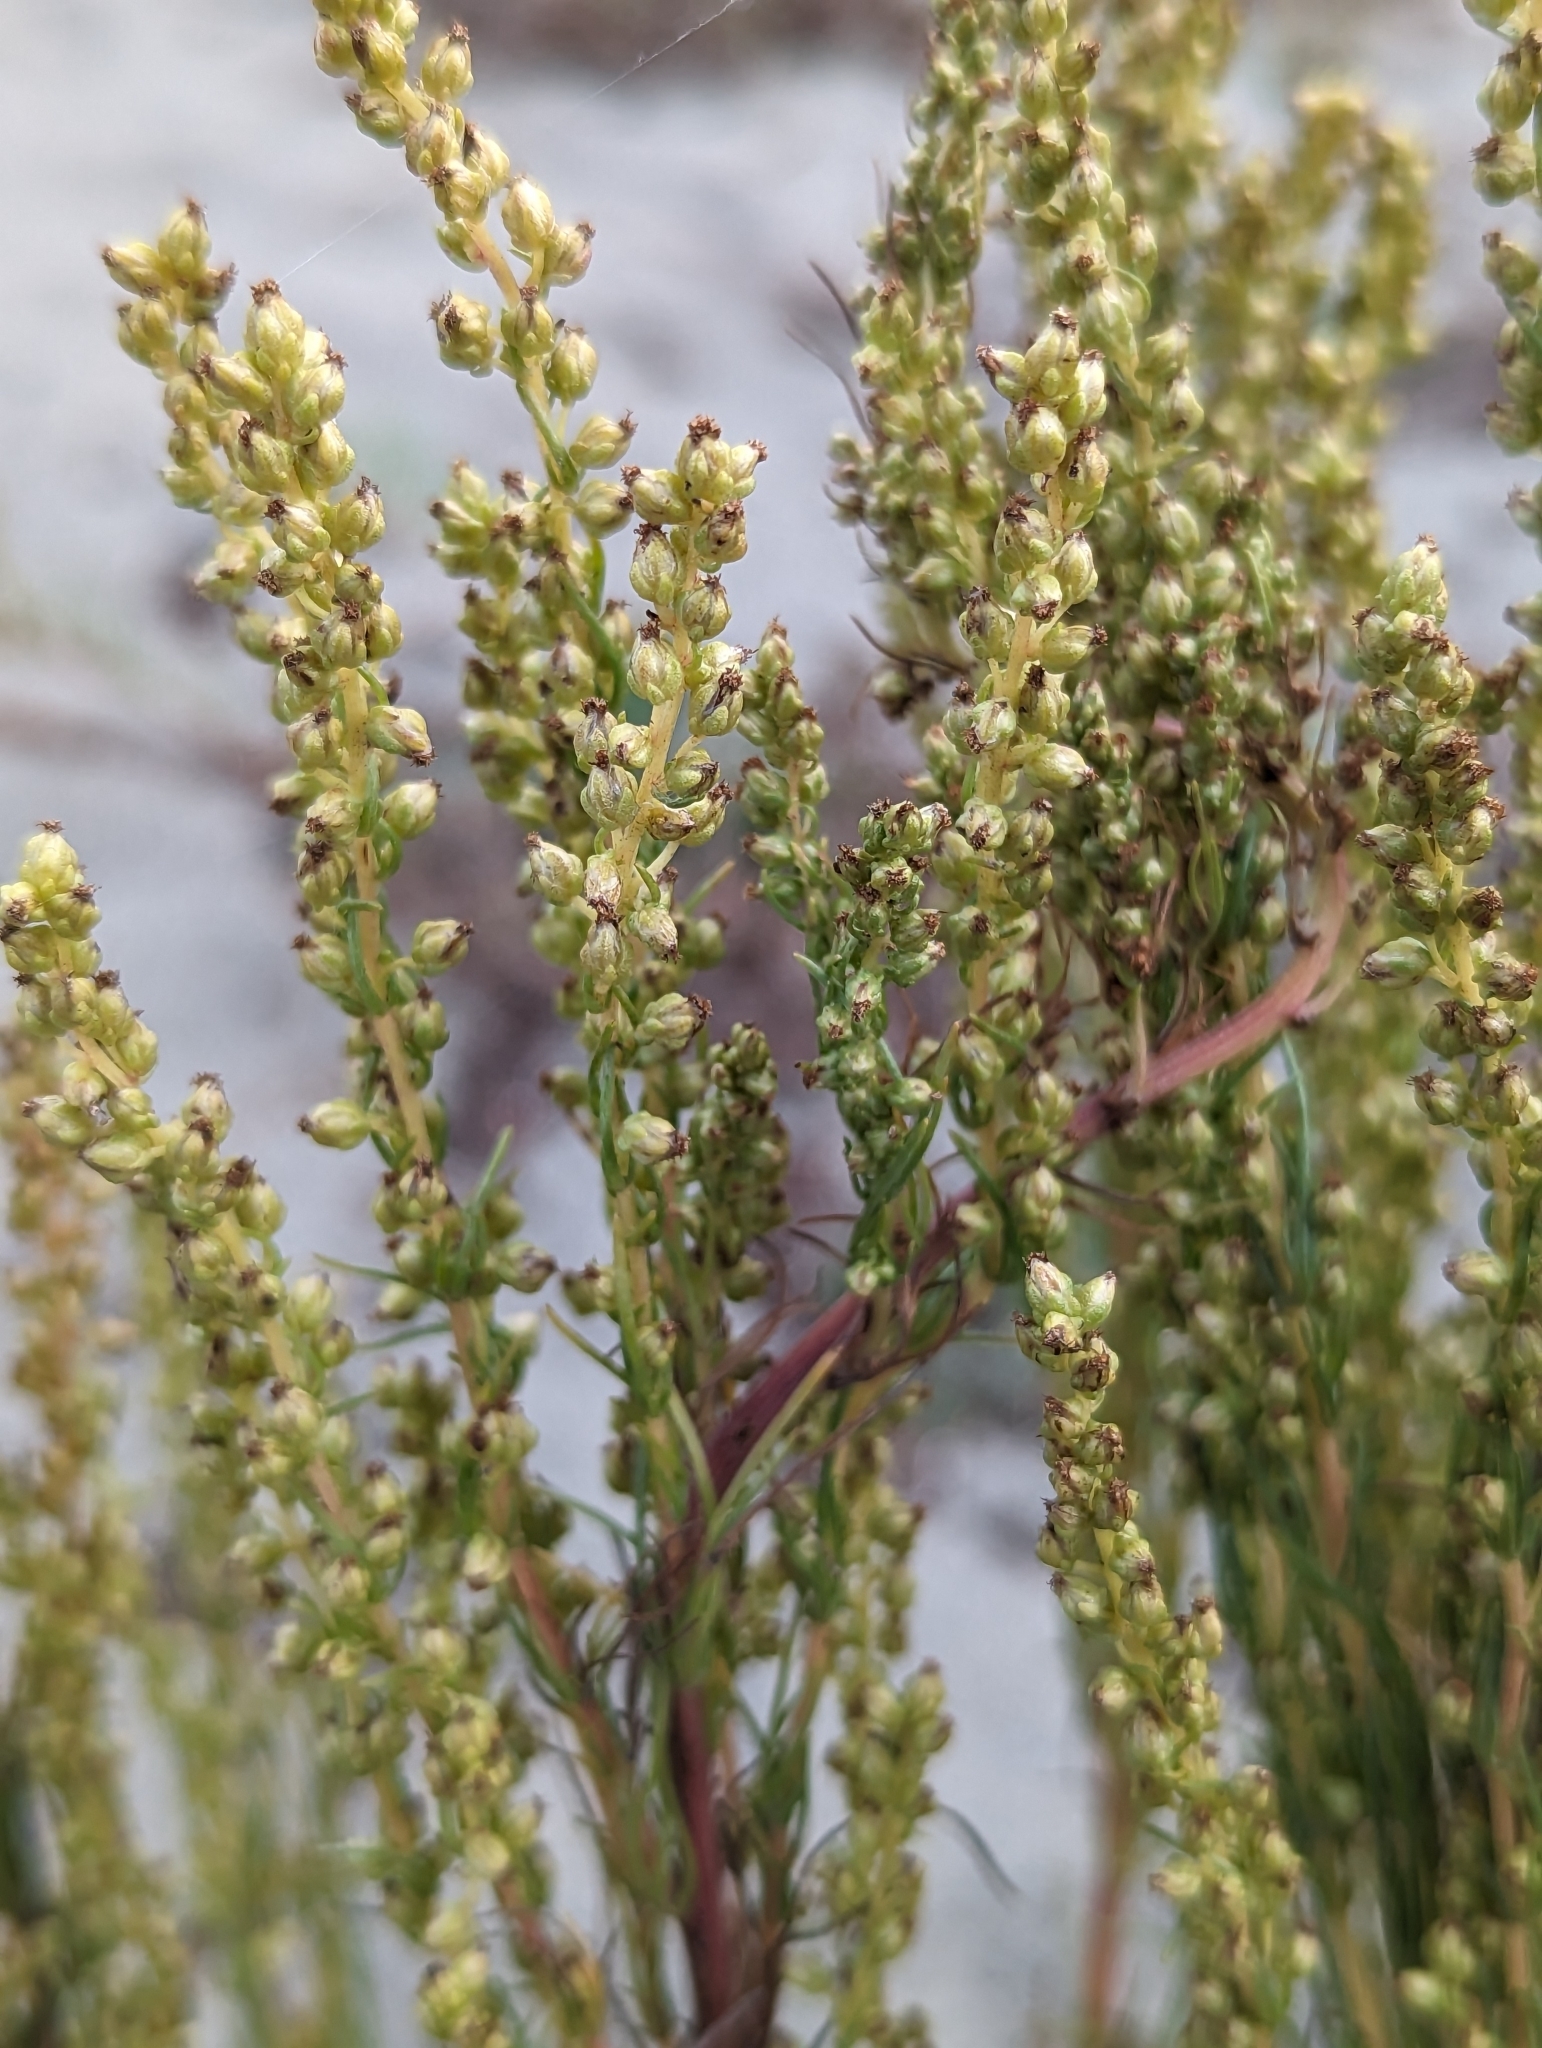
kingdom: Plantae
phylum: Tracheophyta
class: Magnoliopsida
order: Asterales
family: Asteraceae
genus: Artemisia
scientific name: Artemisia campestris
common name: Field wormwood
